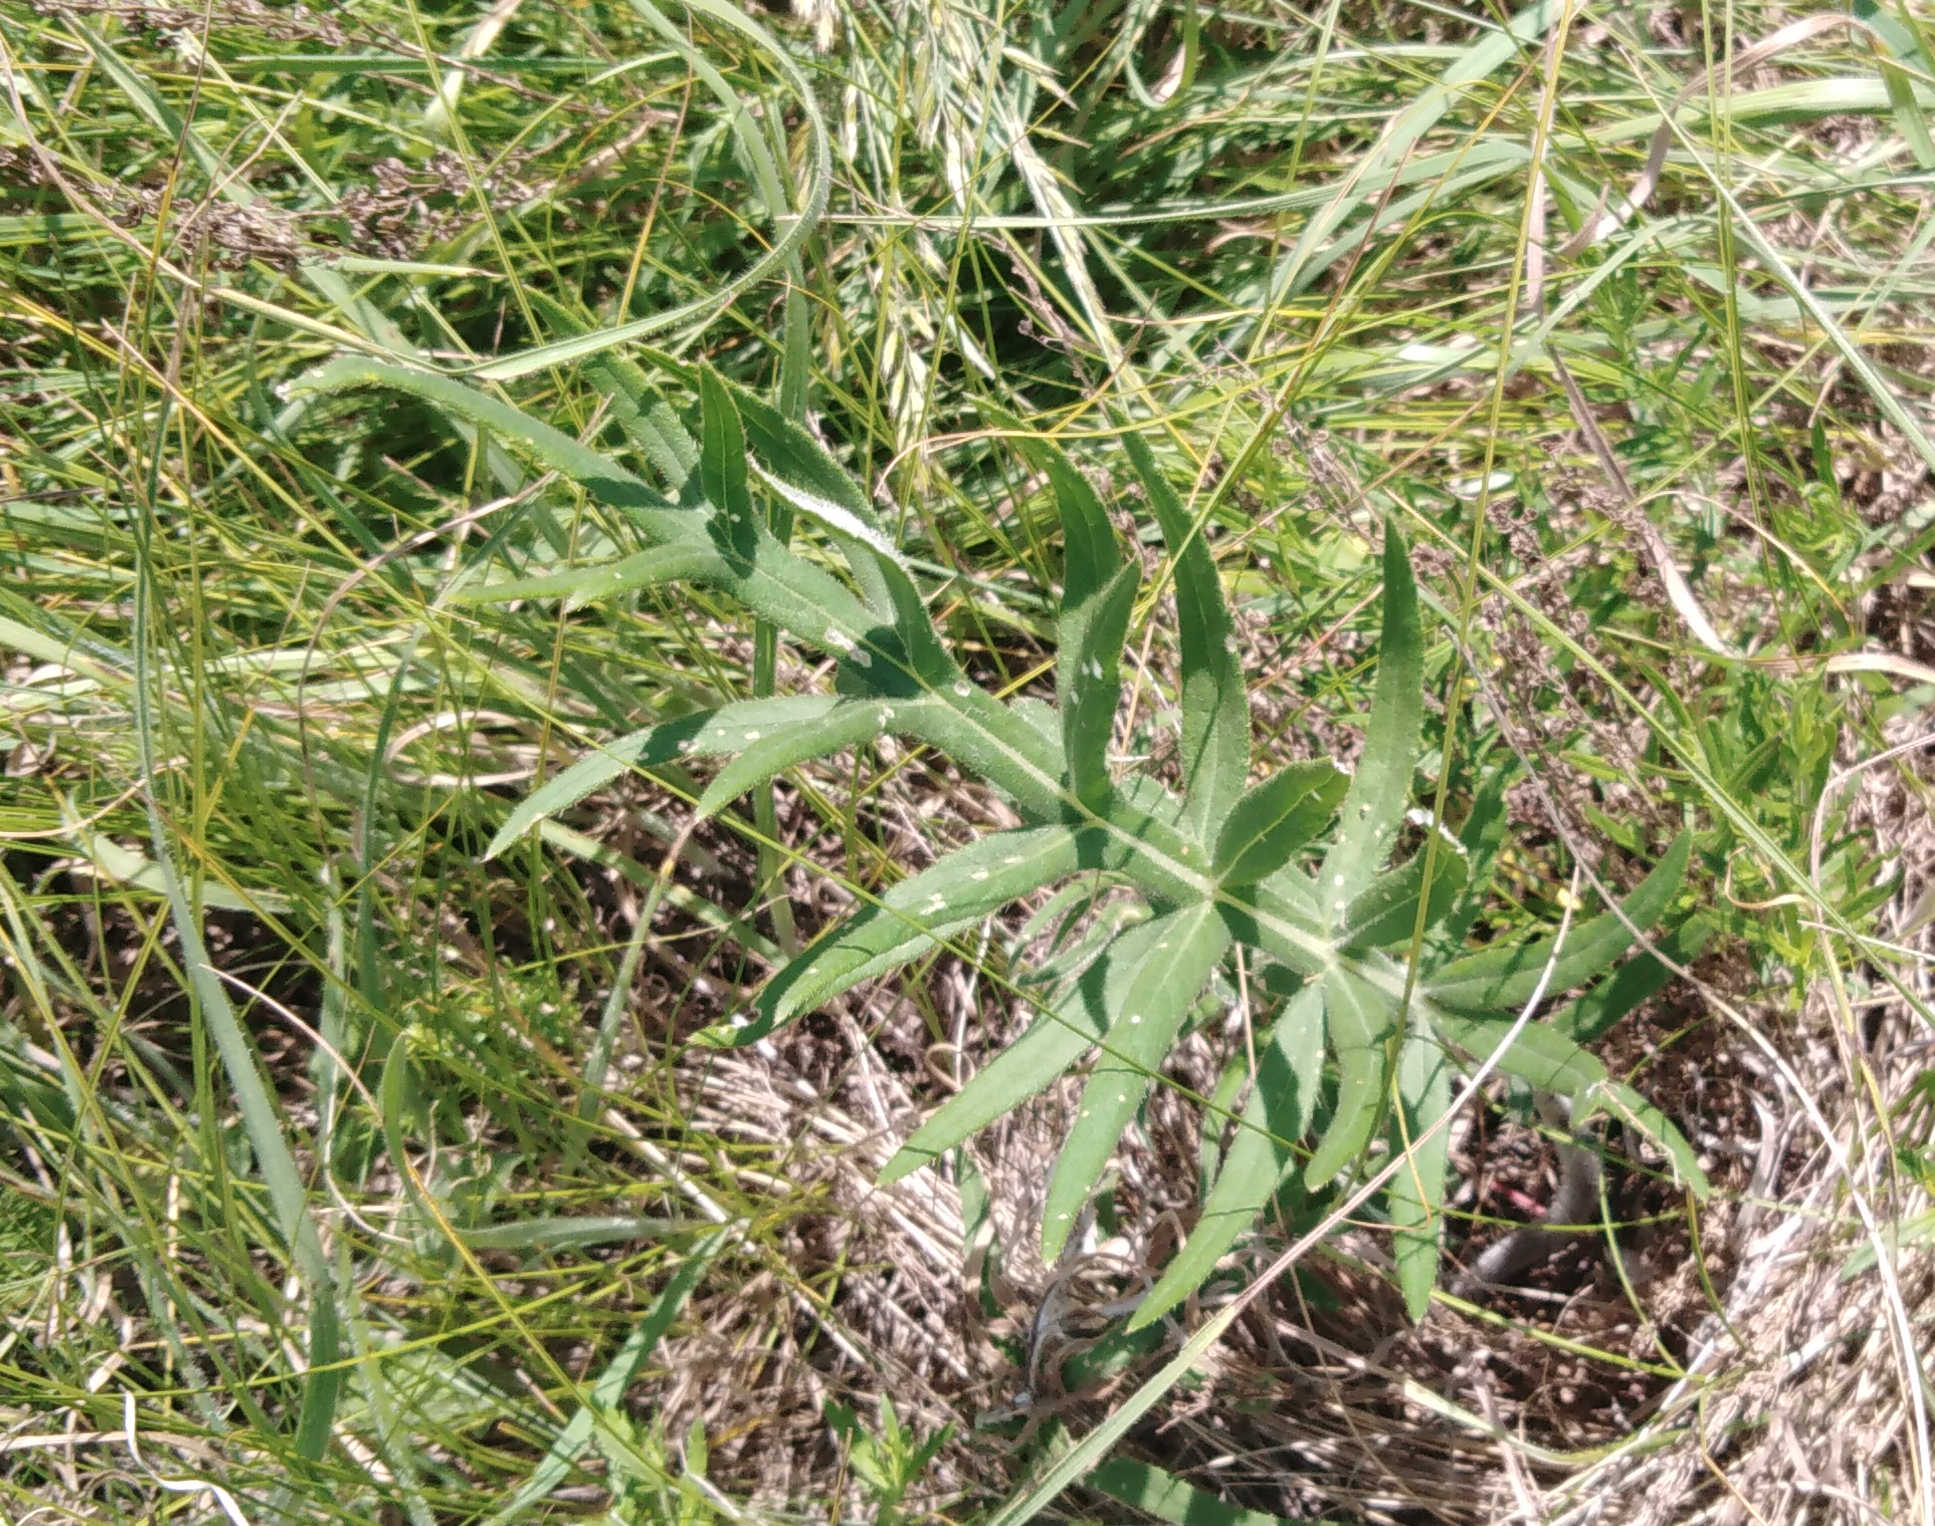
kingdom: Plantae
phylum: Tracheophyta
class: Magnoliopsida
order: Asterales
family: Asteraceae
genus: Lophiolepis
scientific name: Lophiolepis decussata
